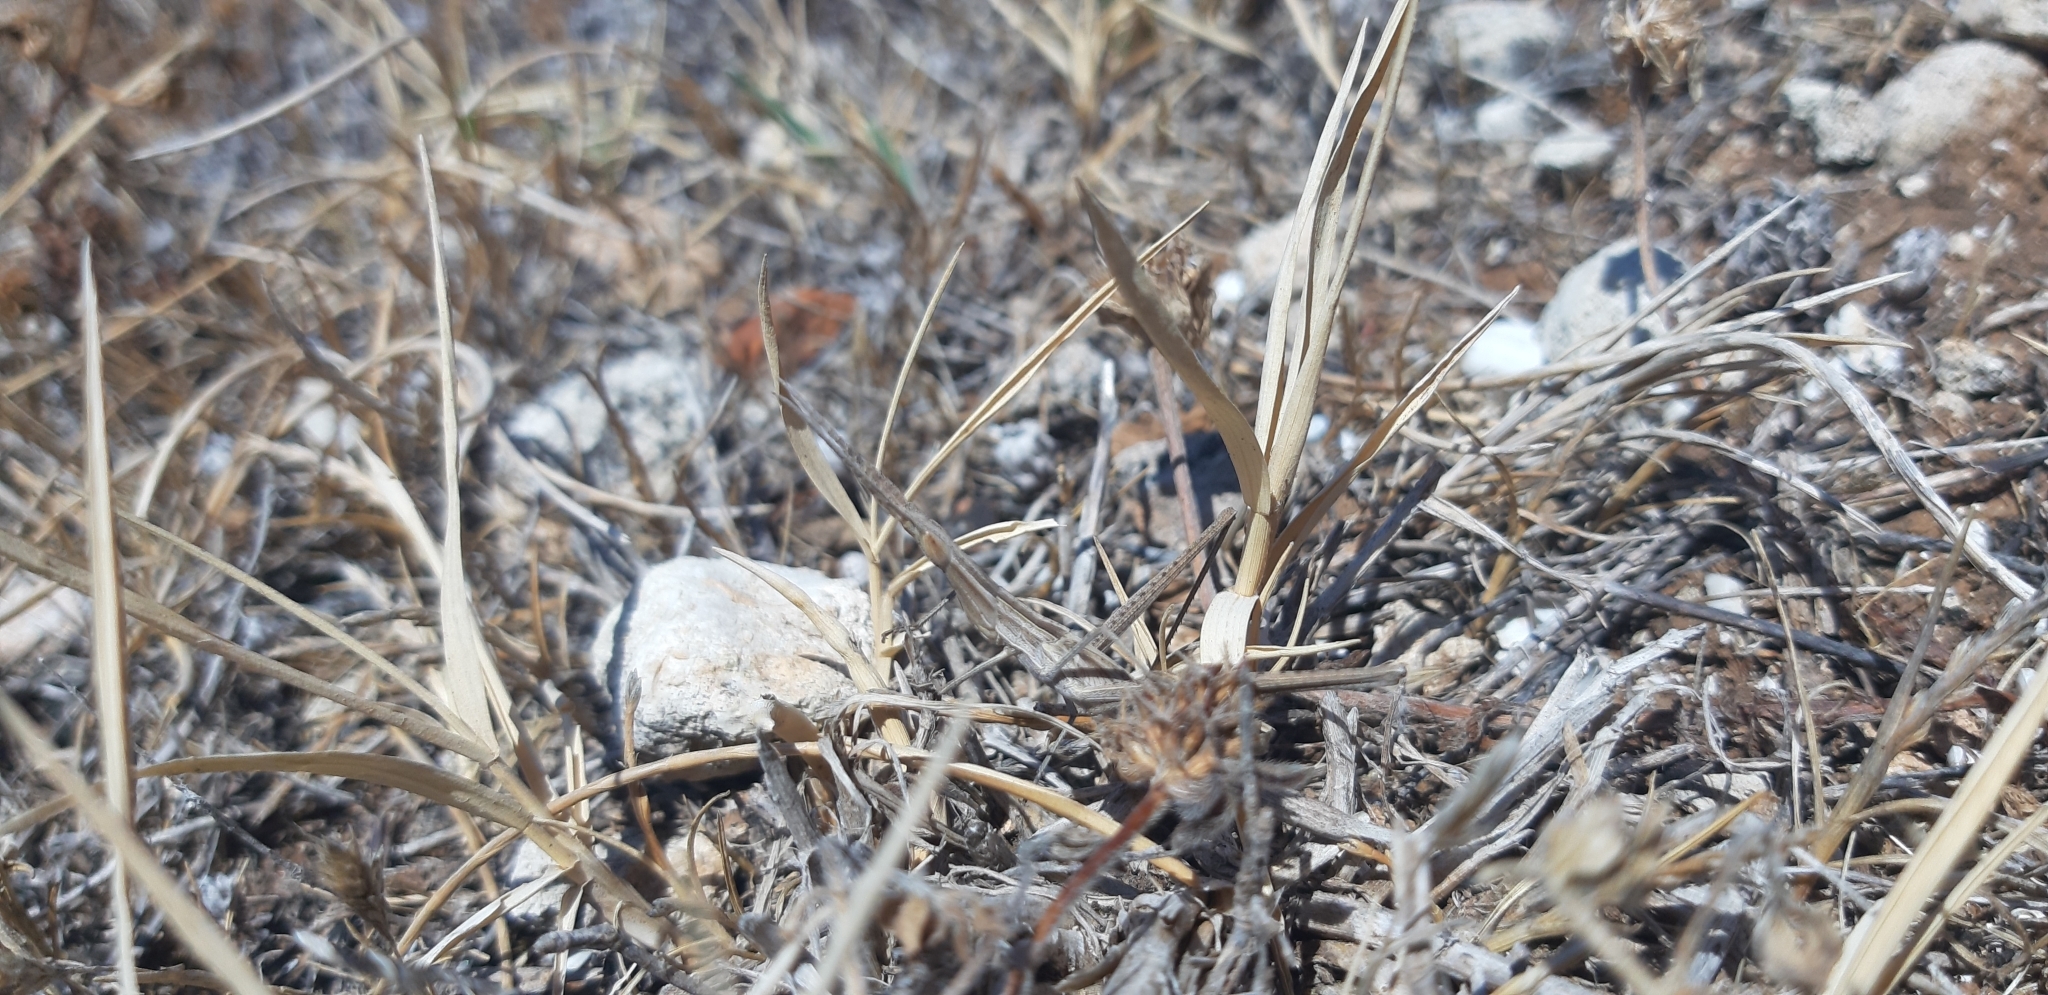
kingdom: Animalia
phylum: Arthropoda
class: Insecta
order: Orthoptera
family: Acrididae
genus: Acrida
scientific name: Acrida ungarica
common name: Common cone-headed grasshopper
